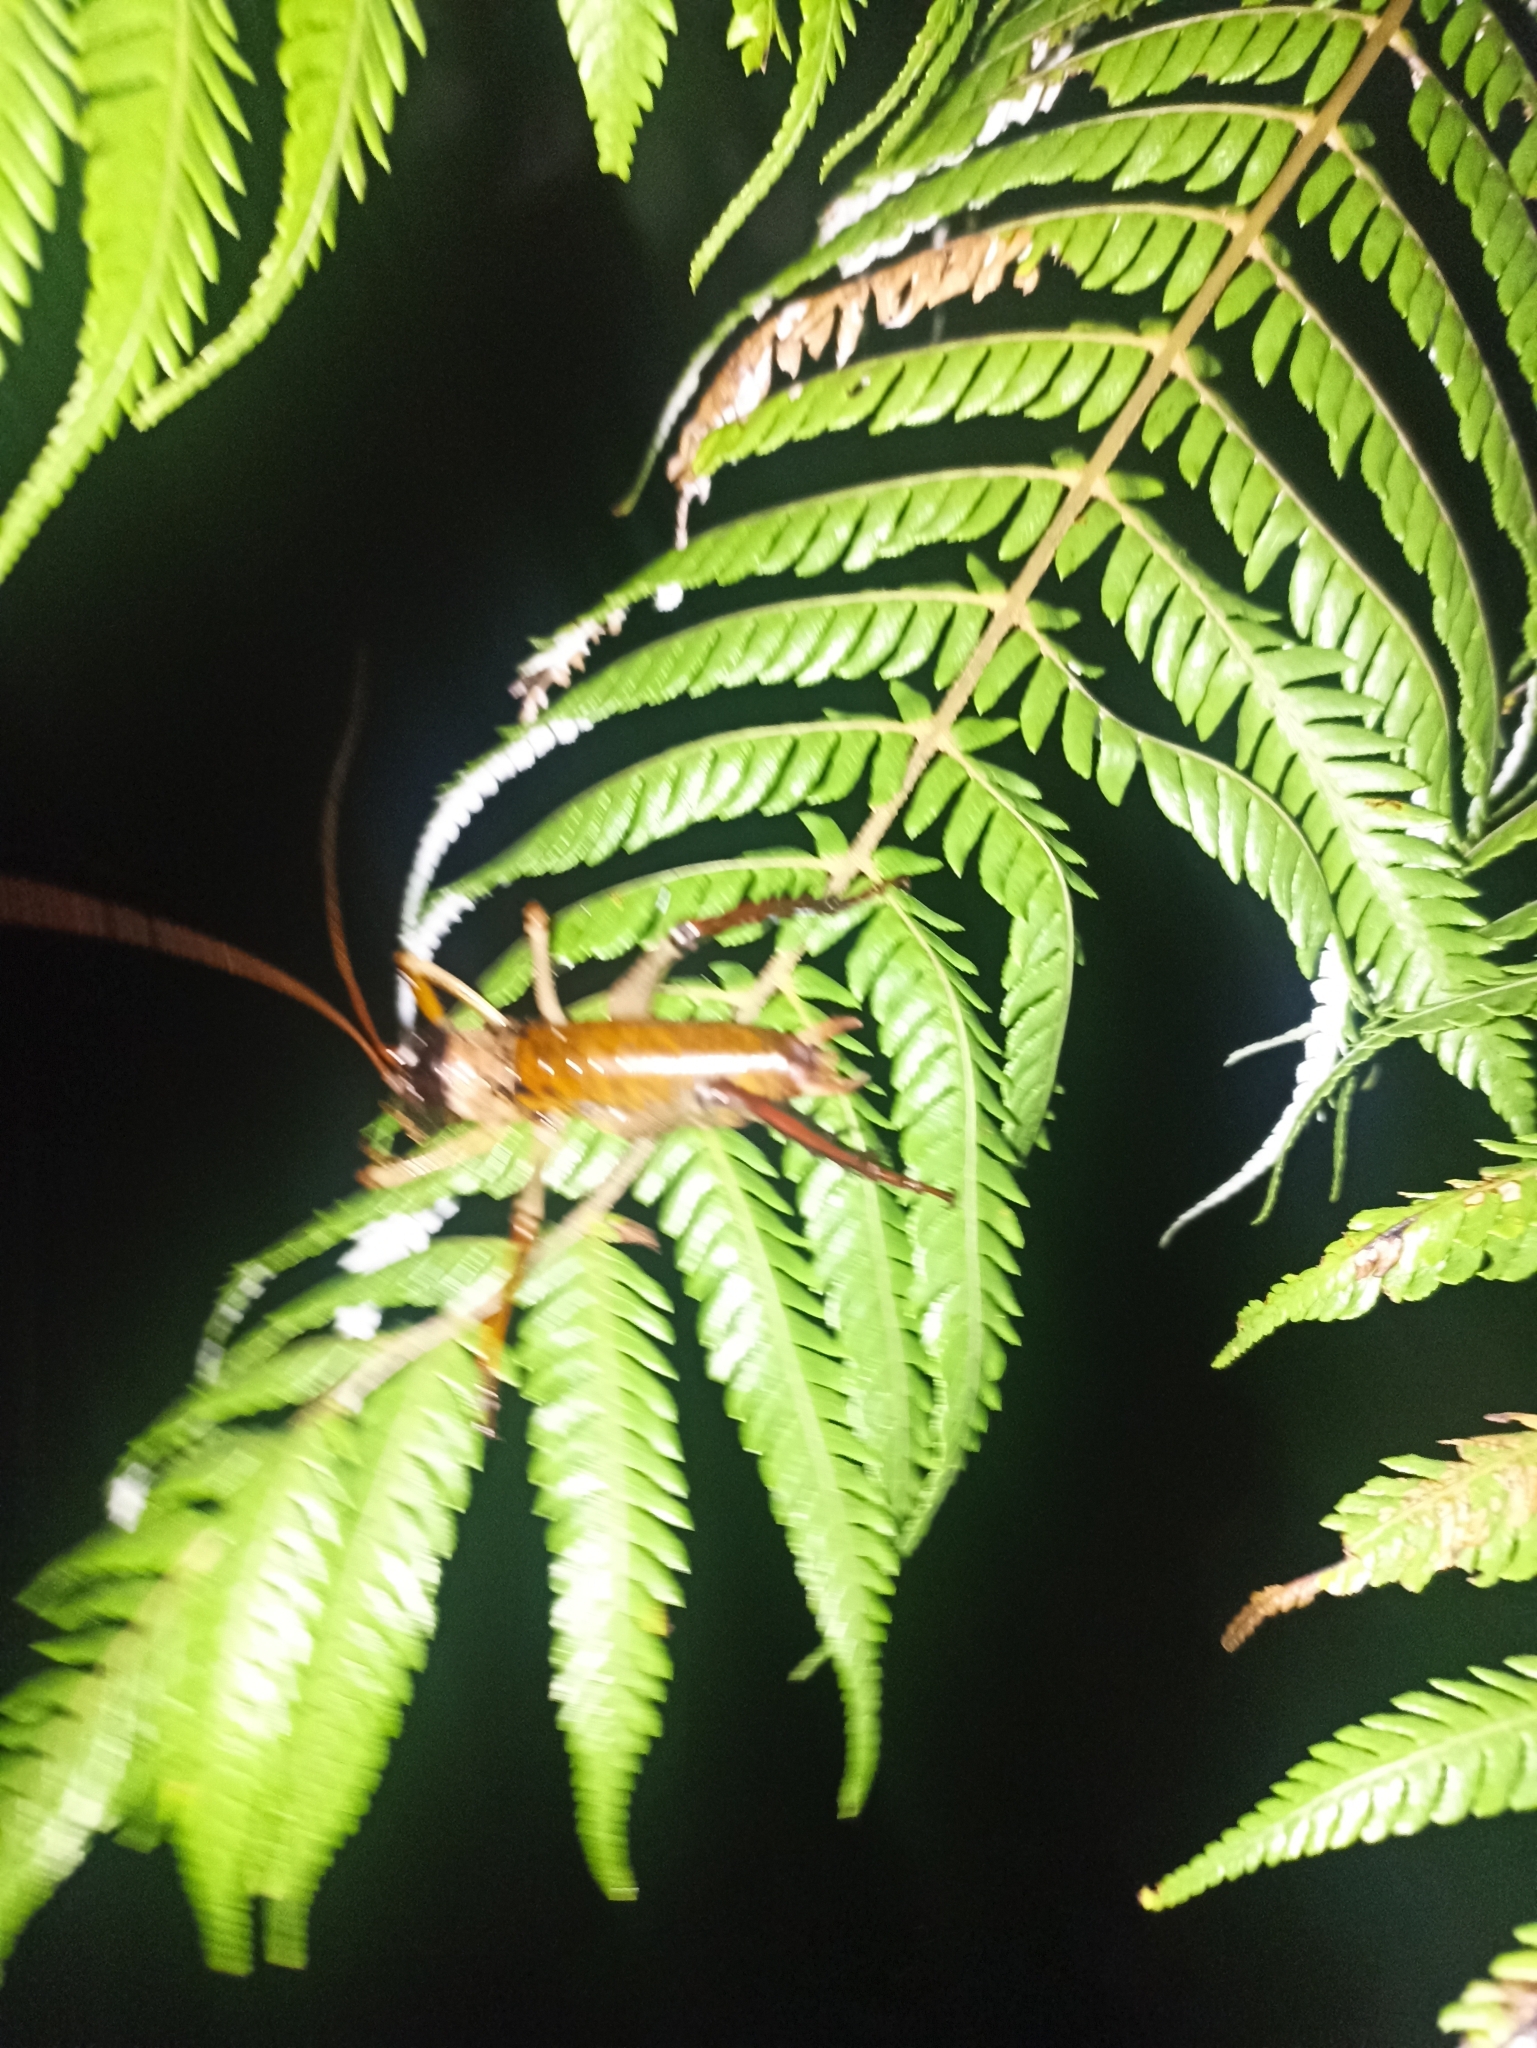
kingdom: Animalia
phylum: Arthropoda
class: Insecta
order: Orthoptera
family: Anostostomatidae
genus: Hemideina
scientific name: Hemideina thoracica
